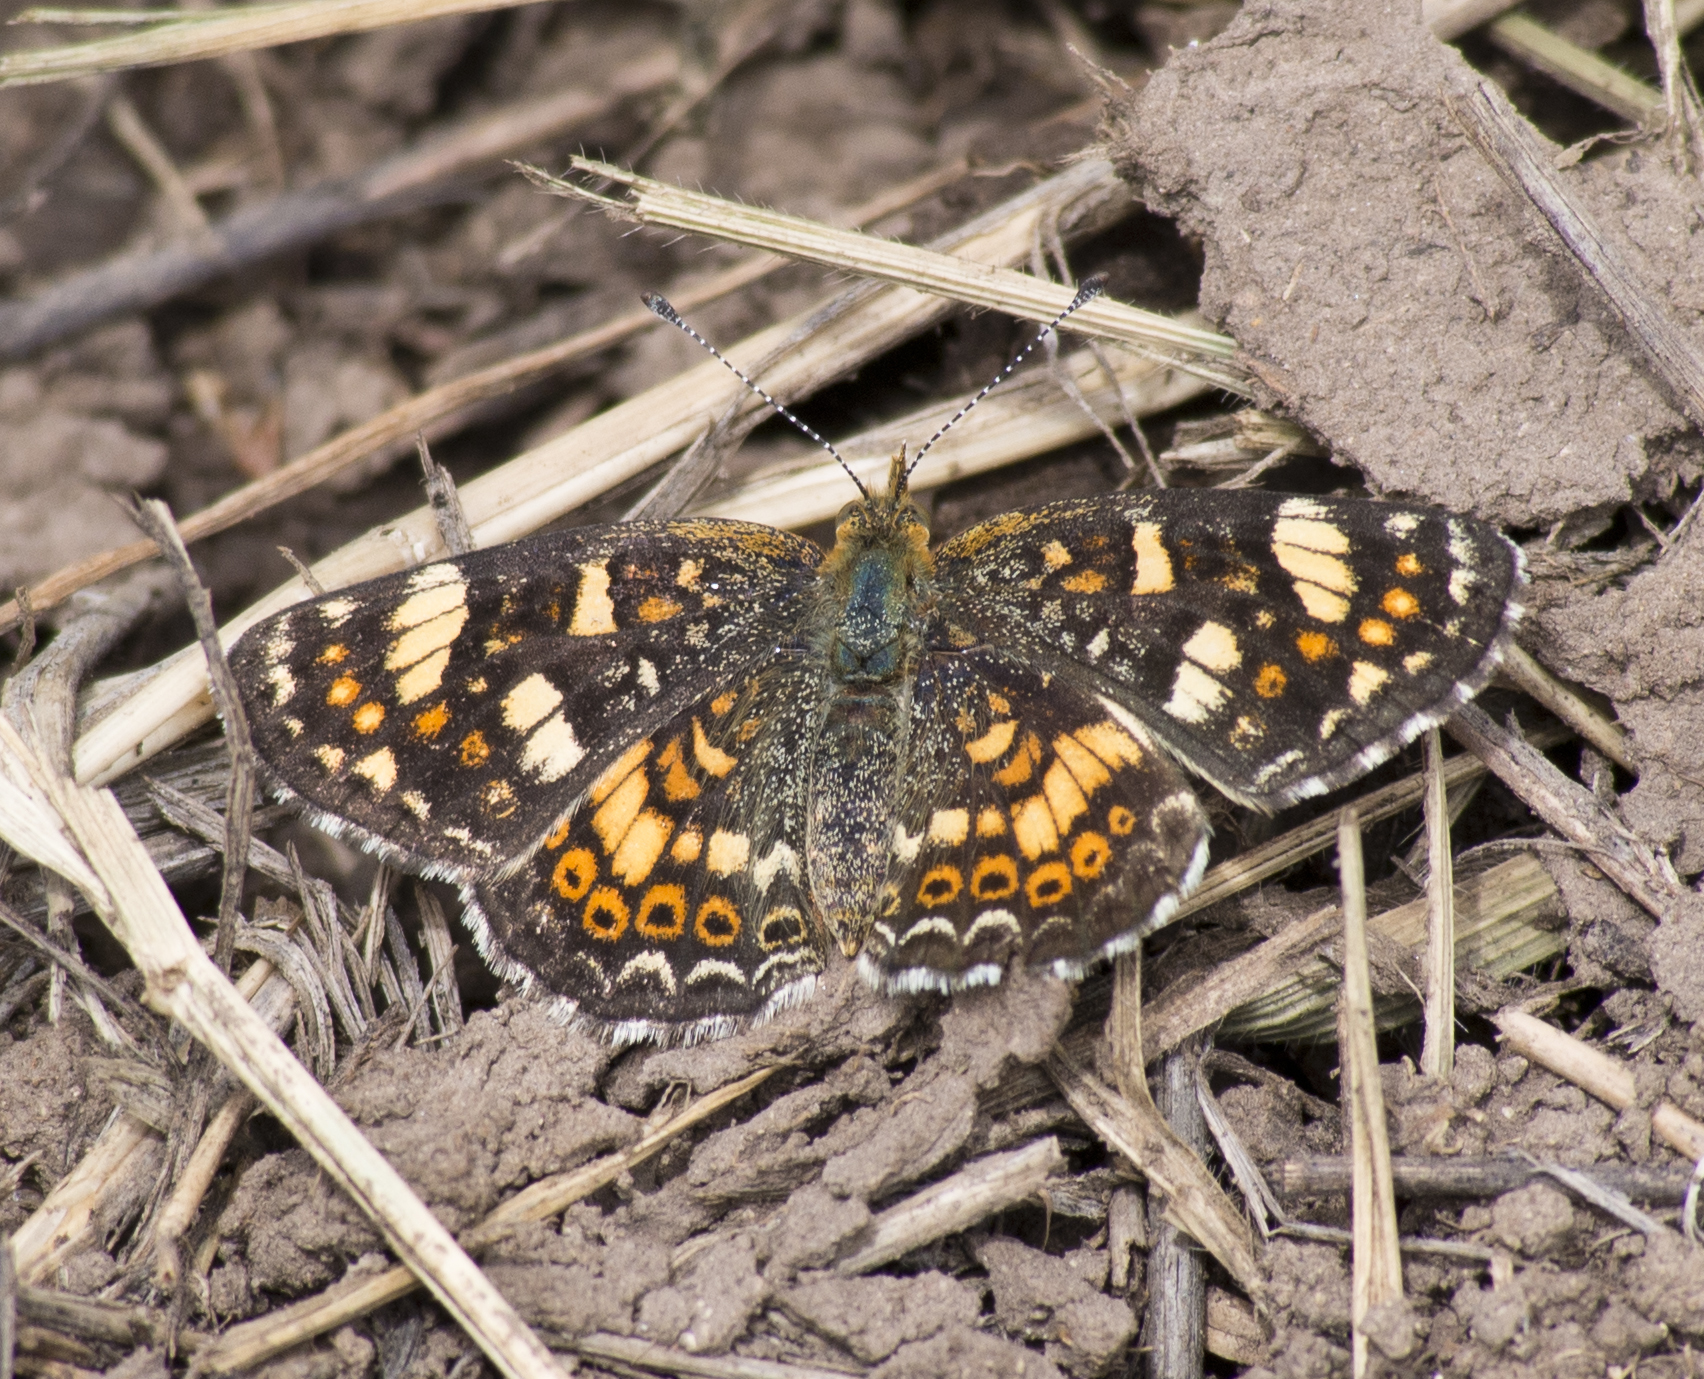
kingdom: Animalia
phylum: Arthropoda
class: Insecta
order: Lepidoptera
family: Nymphalidae
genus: Phyciodes
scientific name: Phyciodes tharos
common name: Pearl crescent
